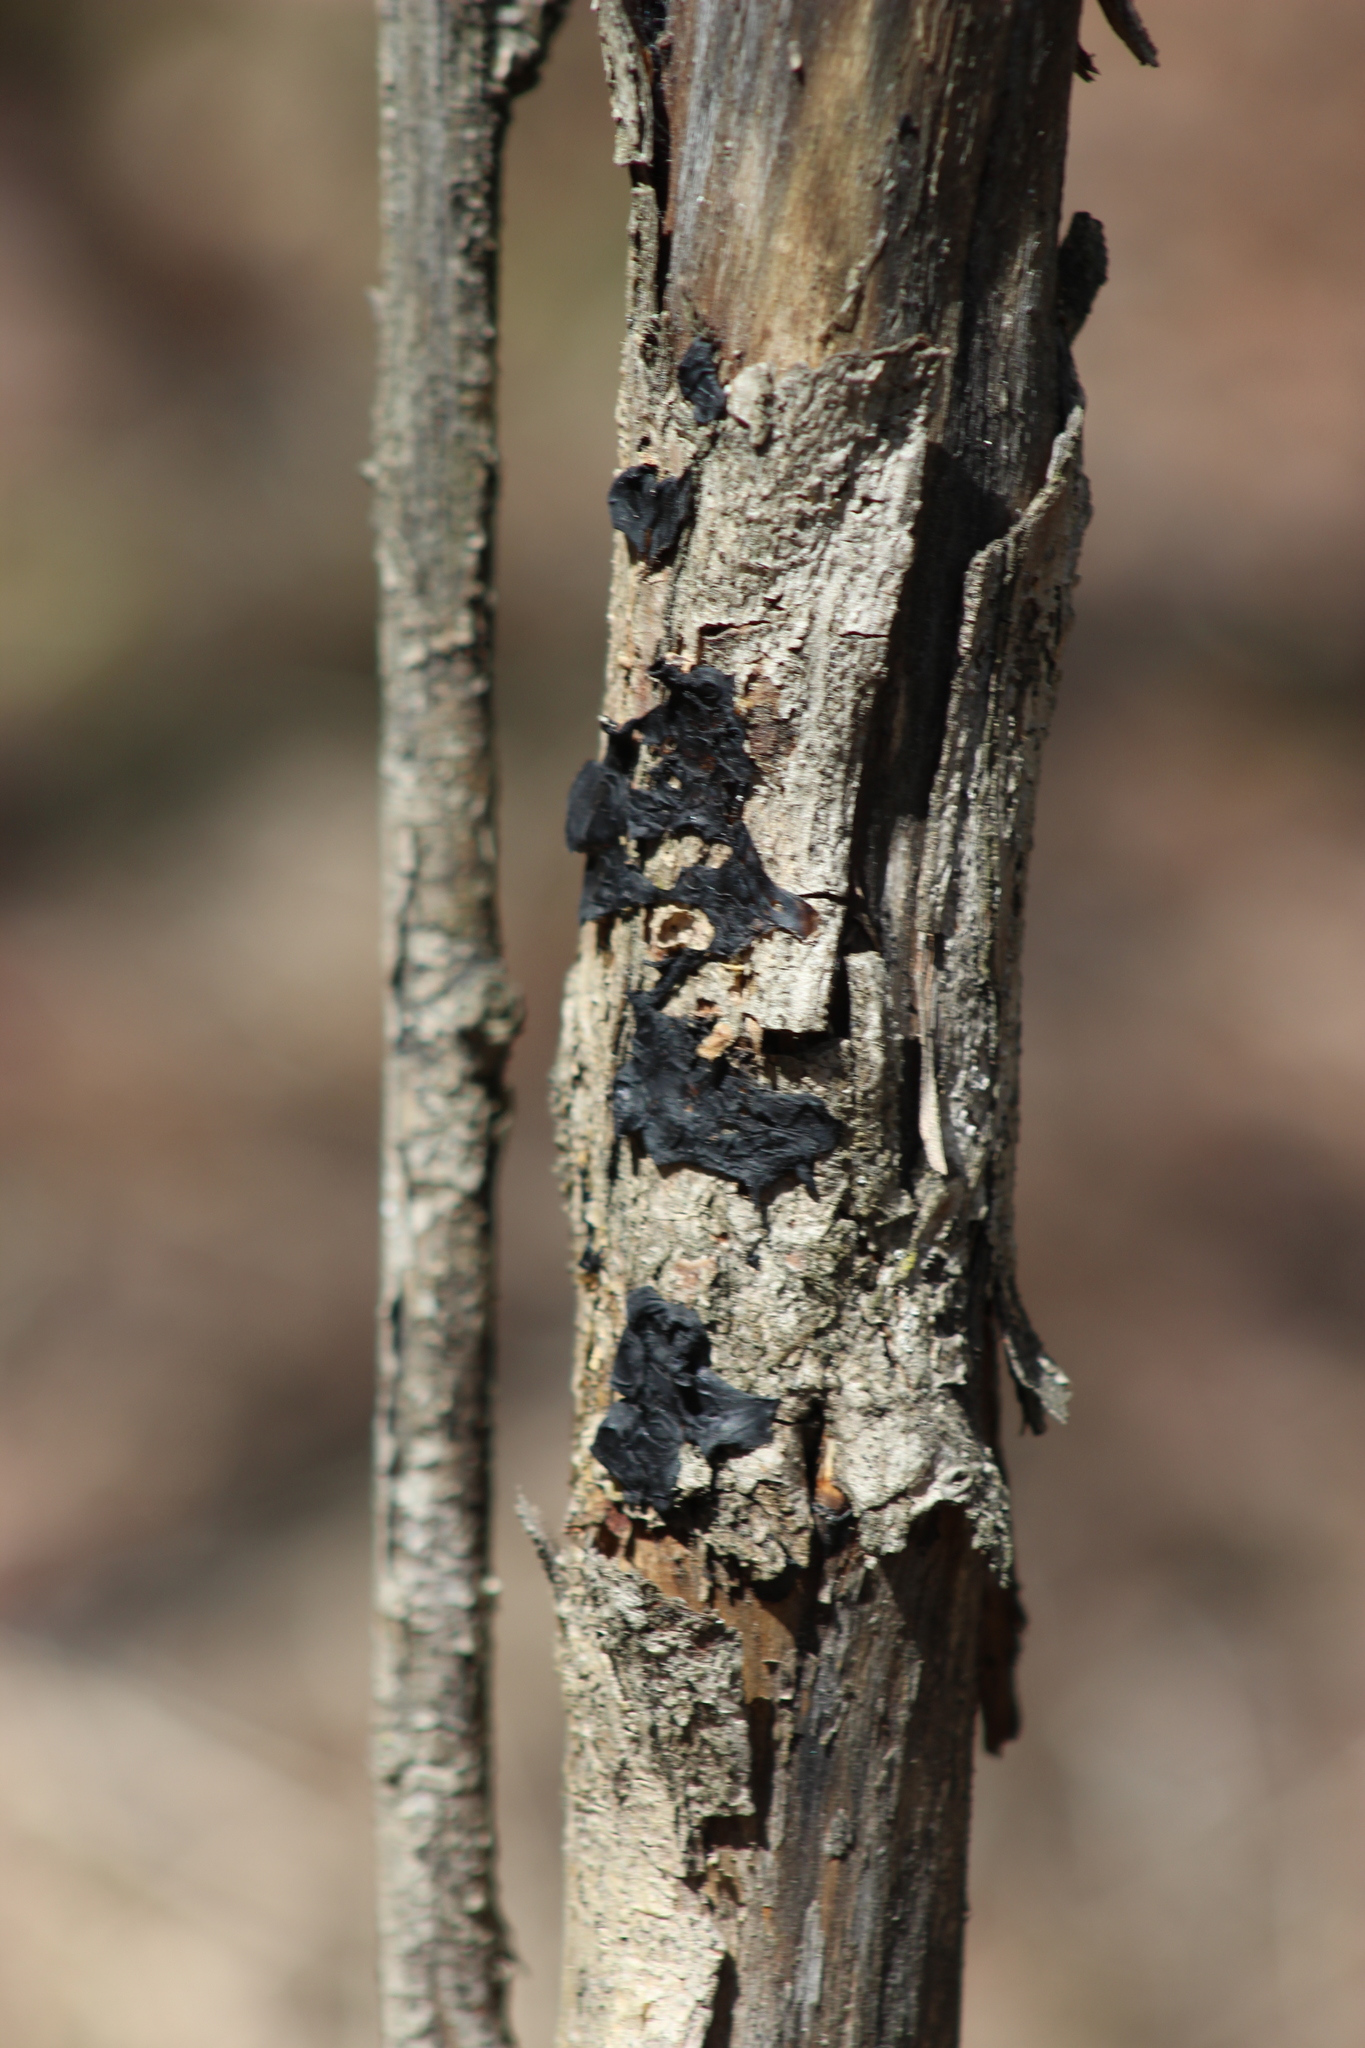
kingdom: Fungi
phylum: Basidiomycota
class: Agaricomycetes
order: Auriculariales
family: Auriculariaceae
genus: Exidia
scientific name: Exidia glandulosa
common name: Witches' butter
